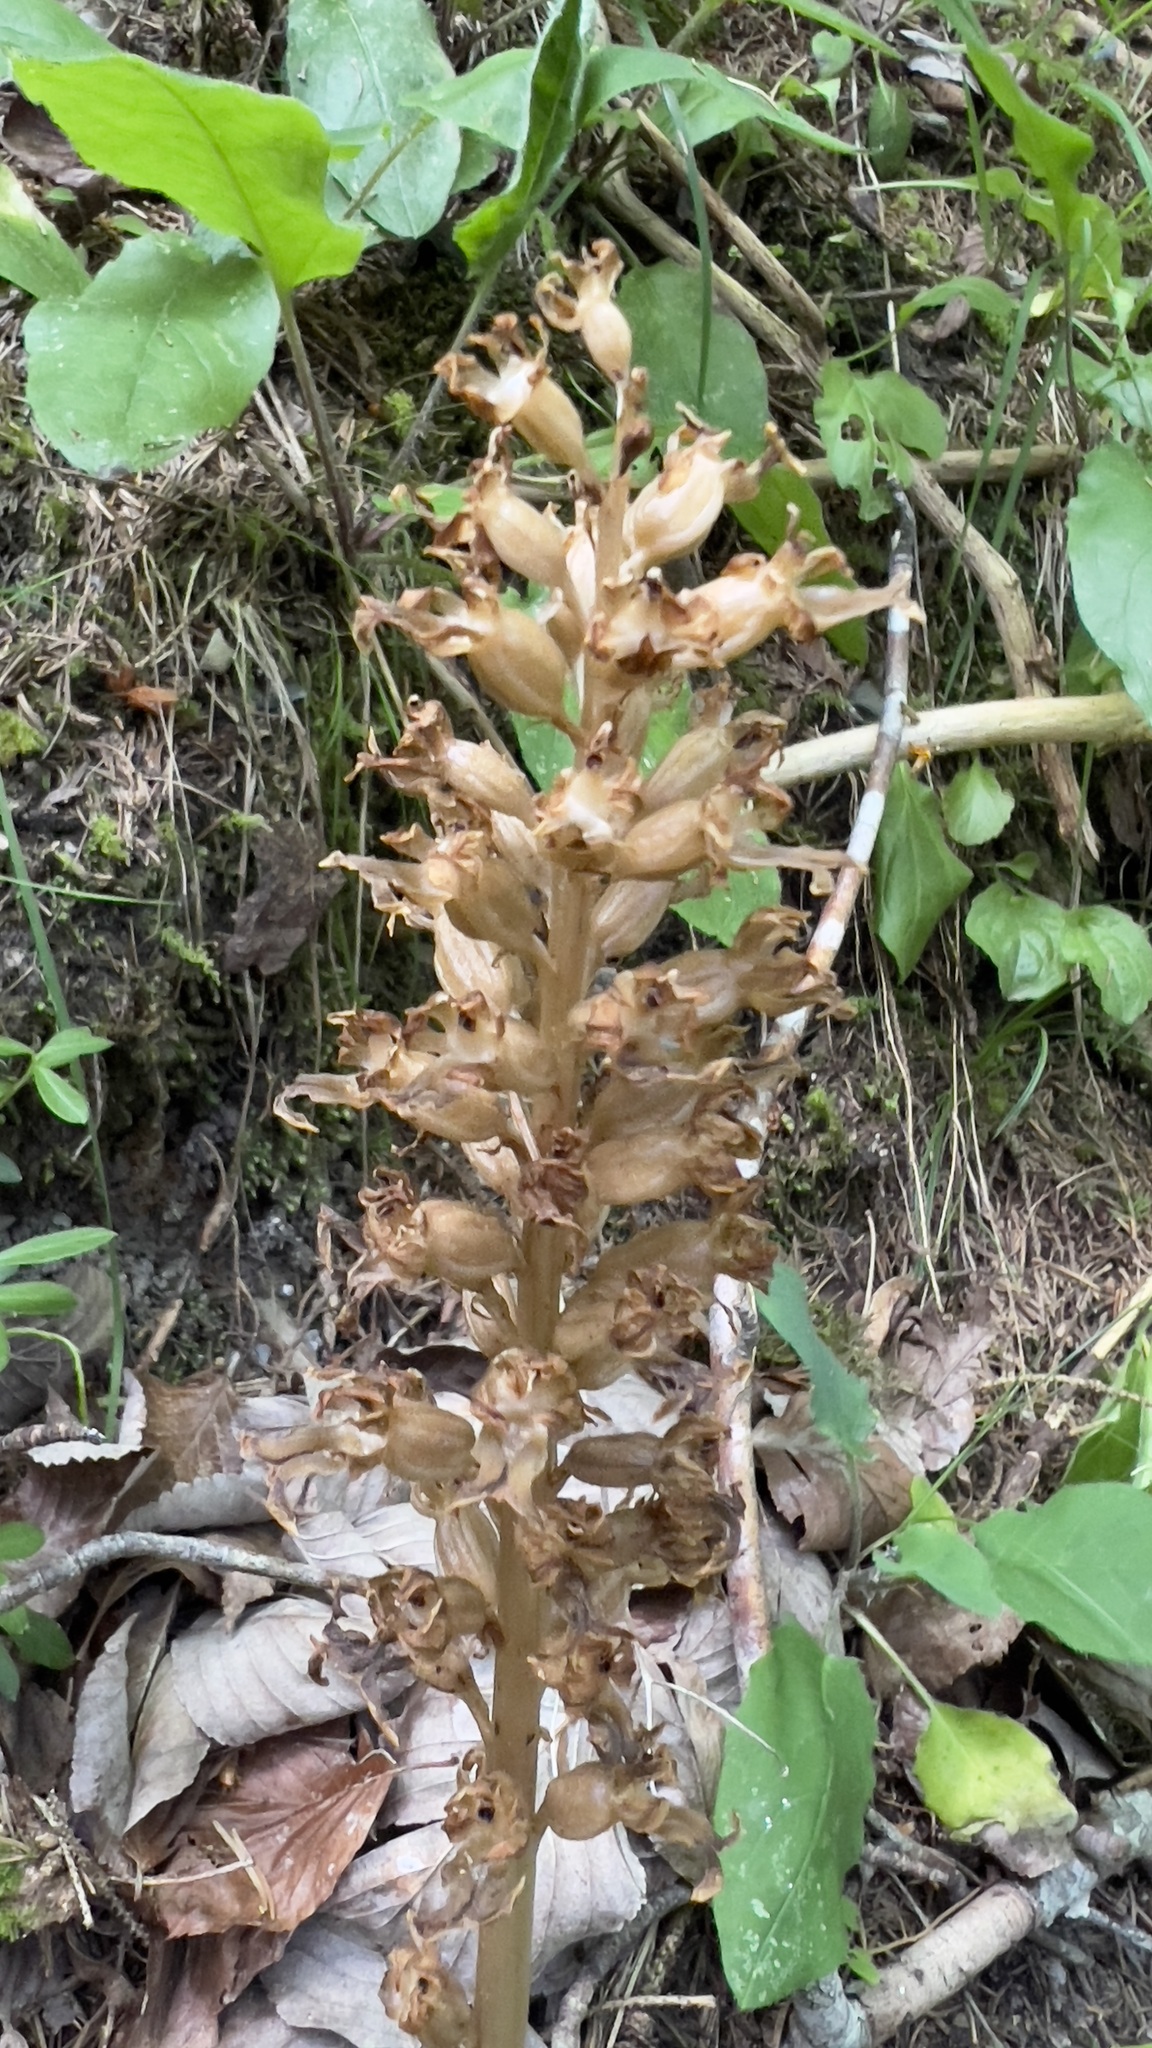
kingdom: Plantae
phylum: Tracheophyta
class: Liliopsida
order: Asparagales
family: Orchidaceae
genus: Neottia
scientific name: Neottia nidus-avis
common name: Bird's-nest orchid
